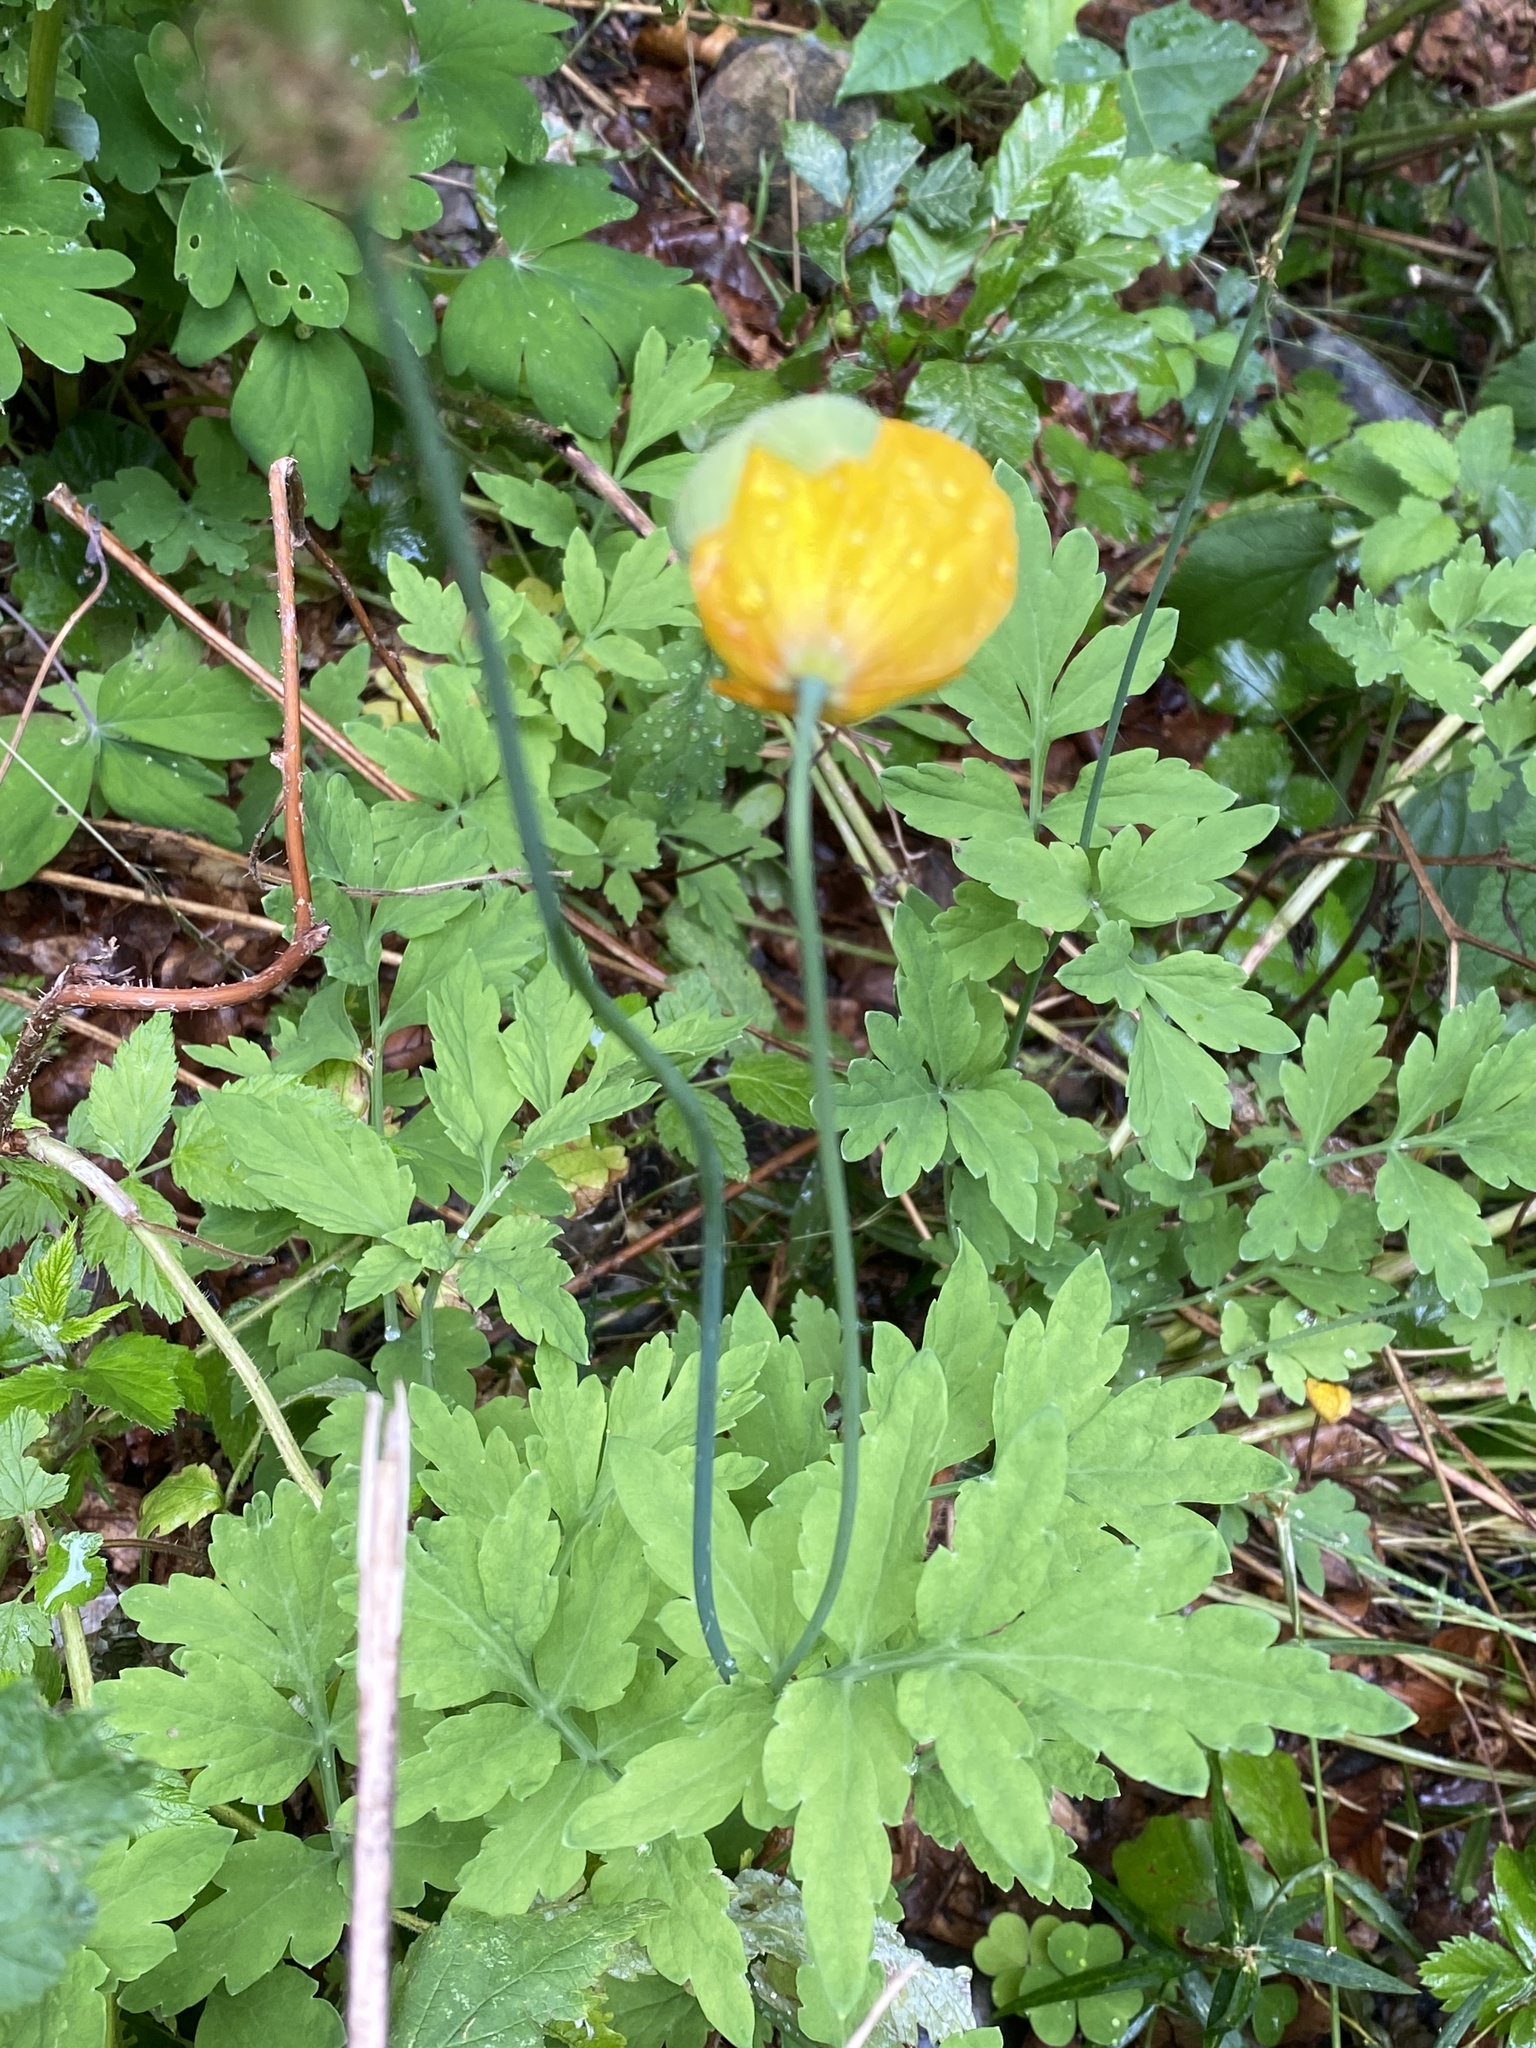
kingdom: Plantae
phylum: Tracheophyta
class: Magnoliopsida
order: Ranunculales
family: Papaveraceae
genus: Papaver
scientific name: Papaver cambricum
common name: Poppy
